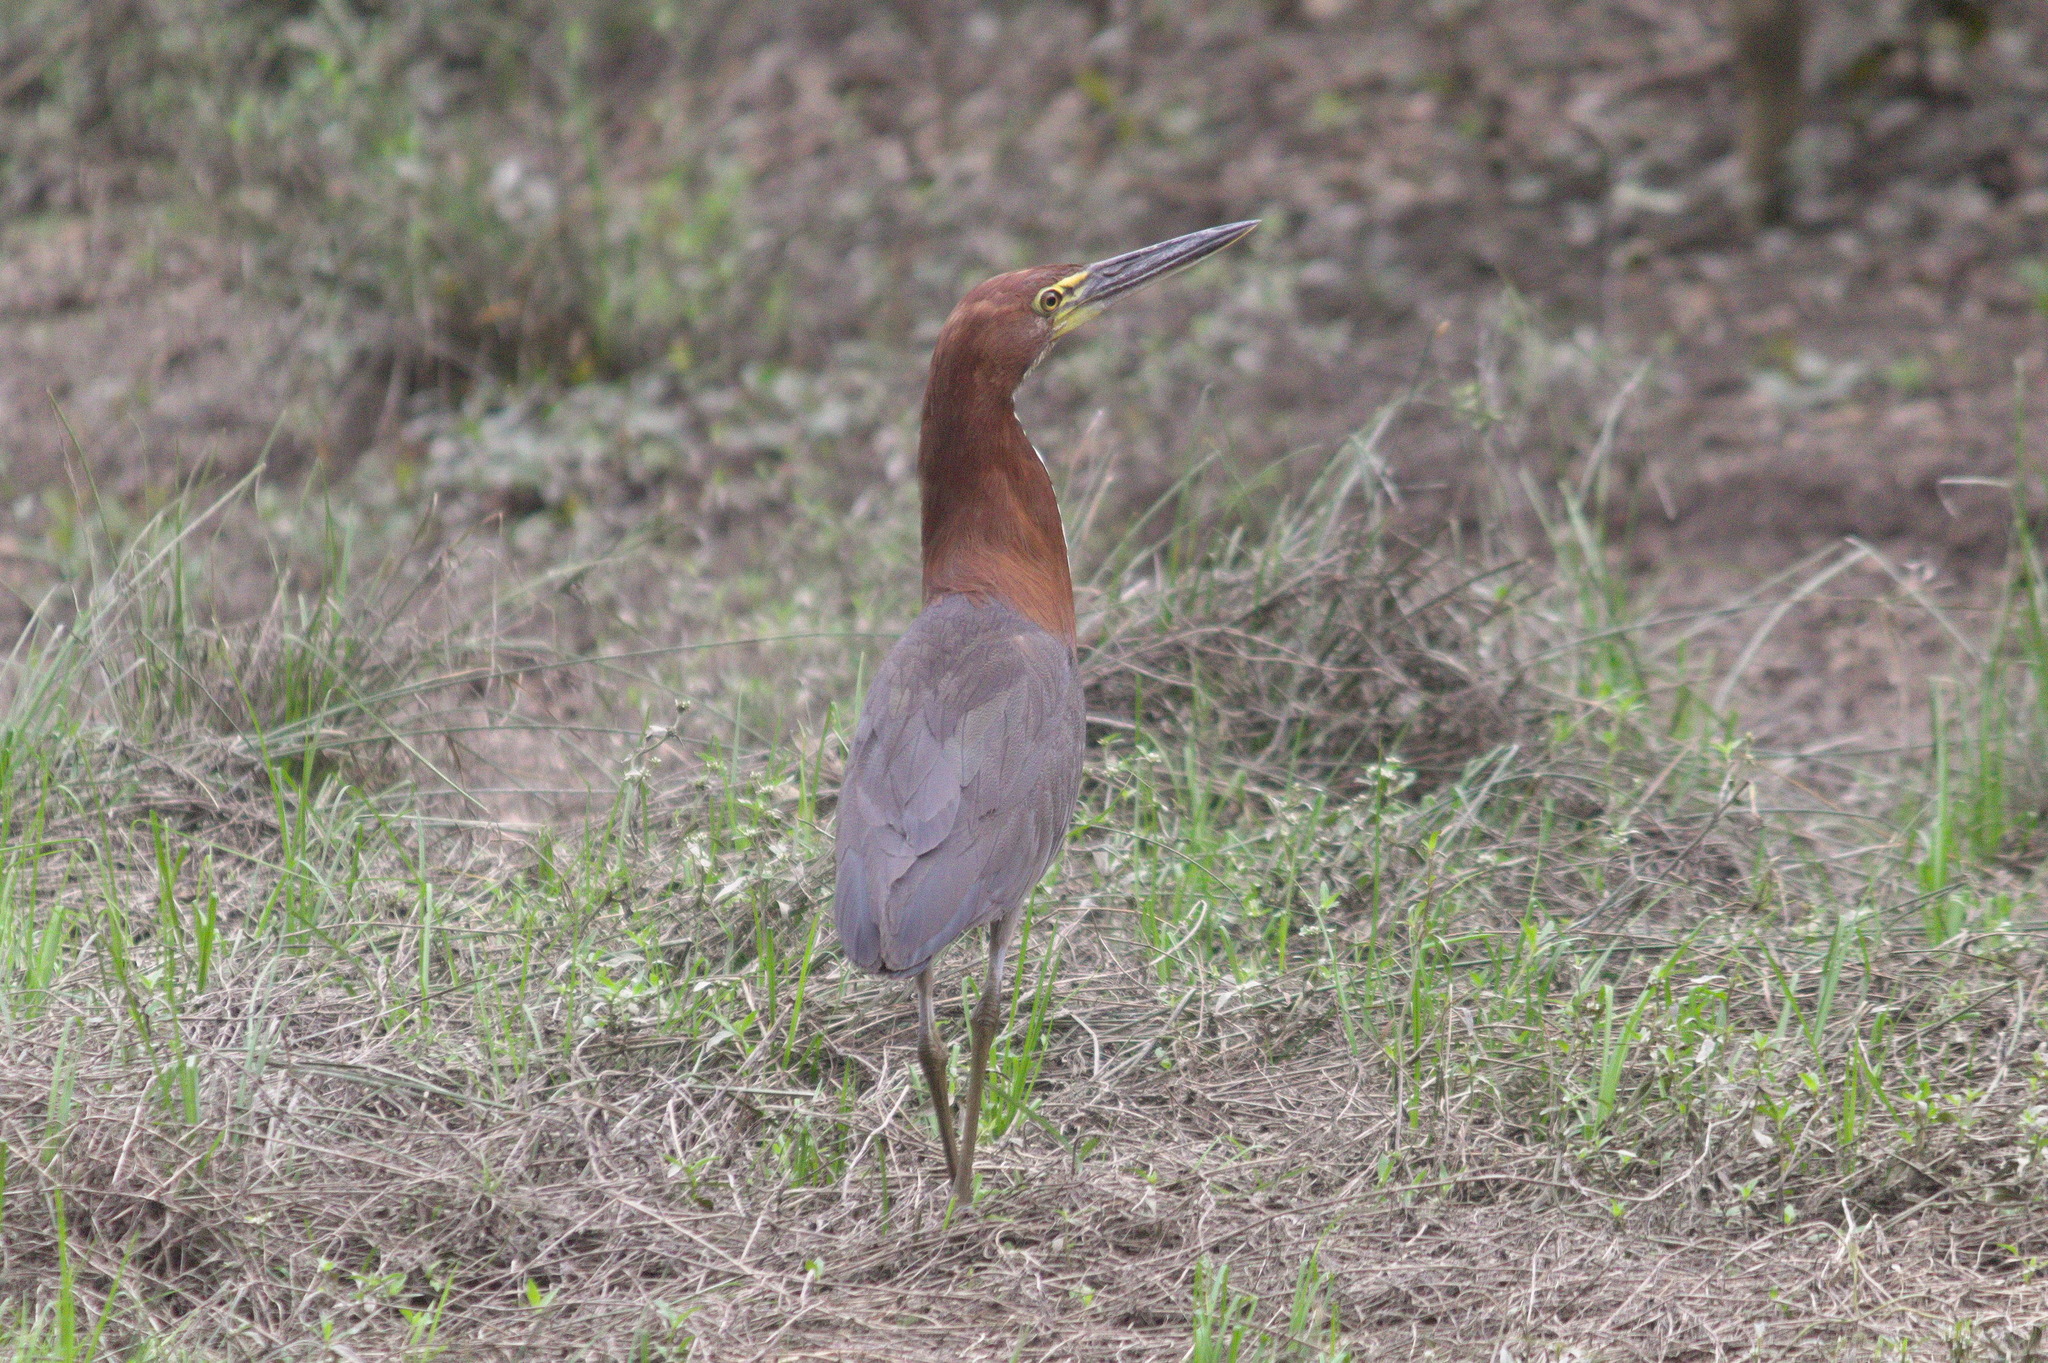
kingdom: Animalia
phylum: Chordata
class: Aves
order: Pelecaniformes
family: Ardeidae
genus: Tigrisoma
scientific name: Tigrisoma lineatum
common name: Rufescent tiger-heron
